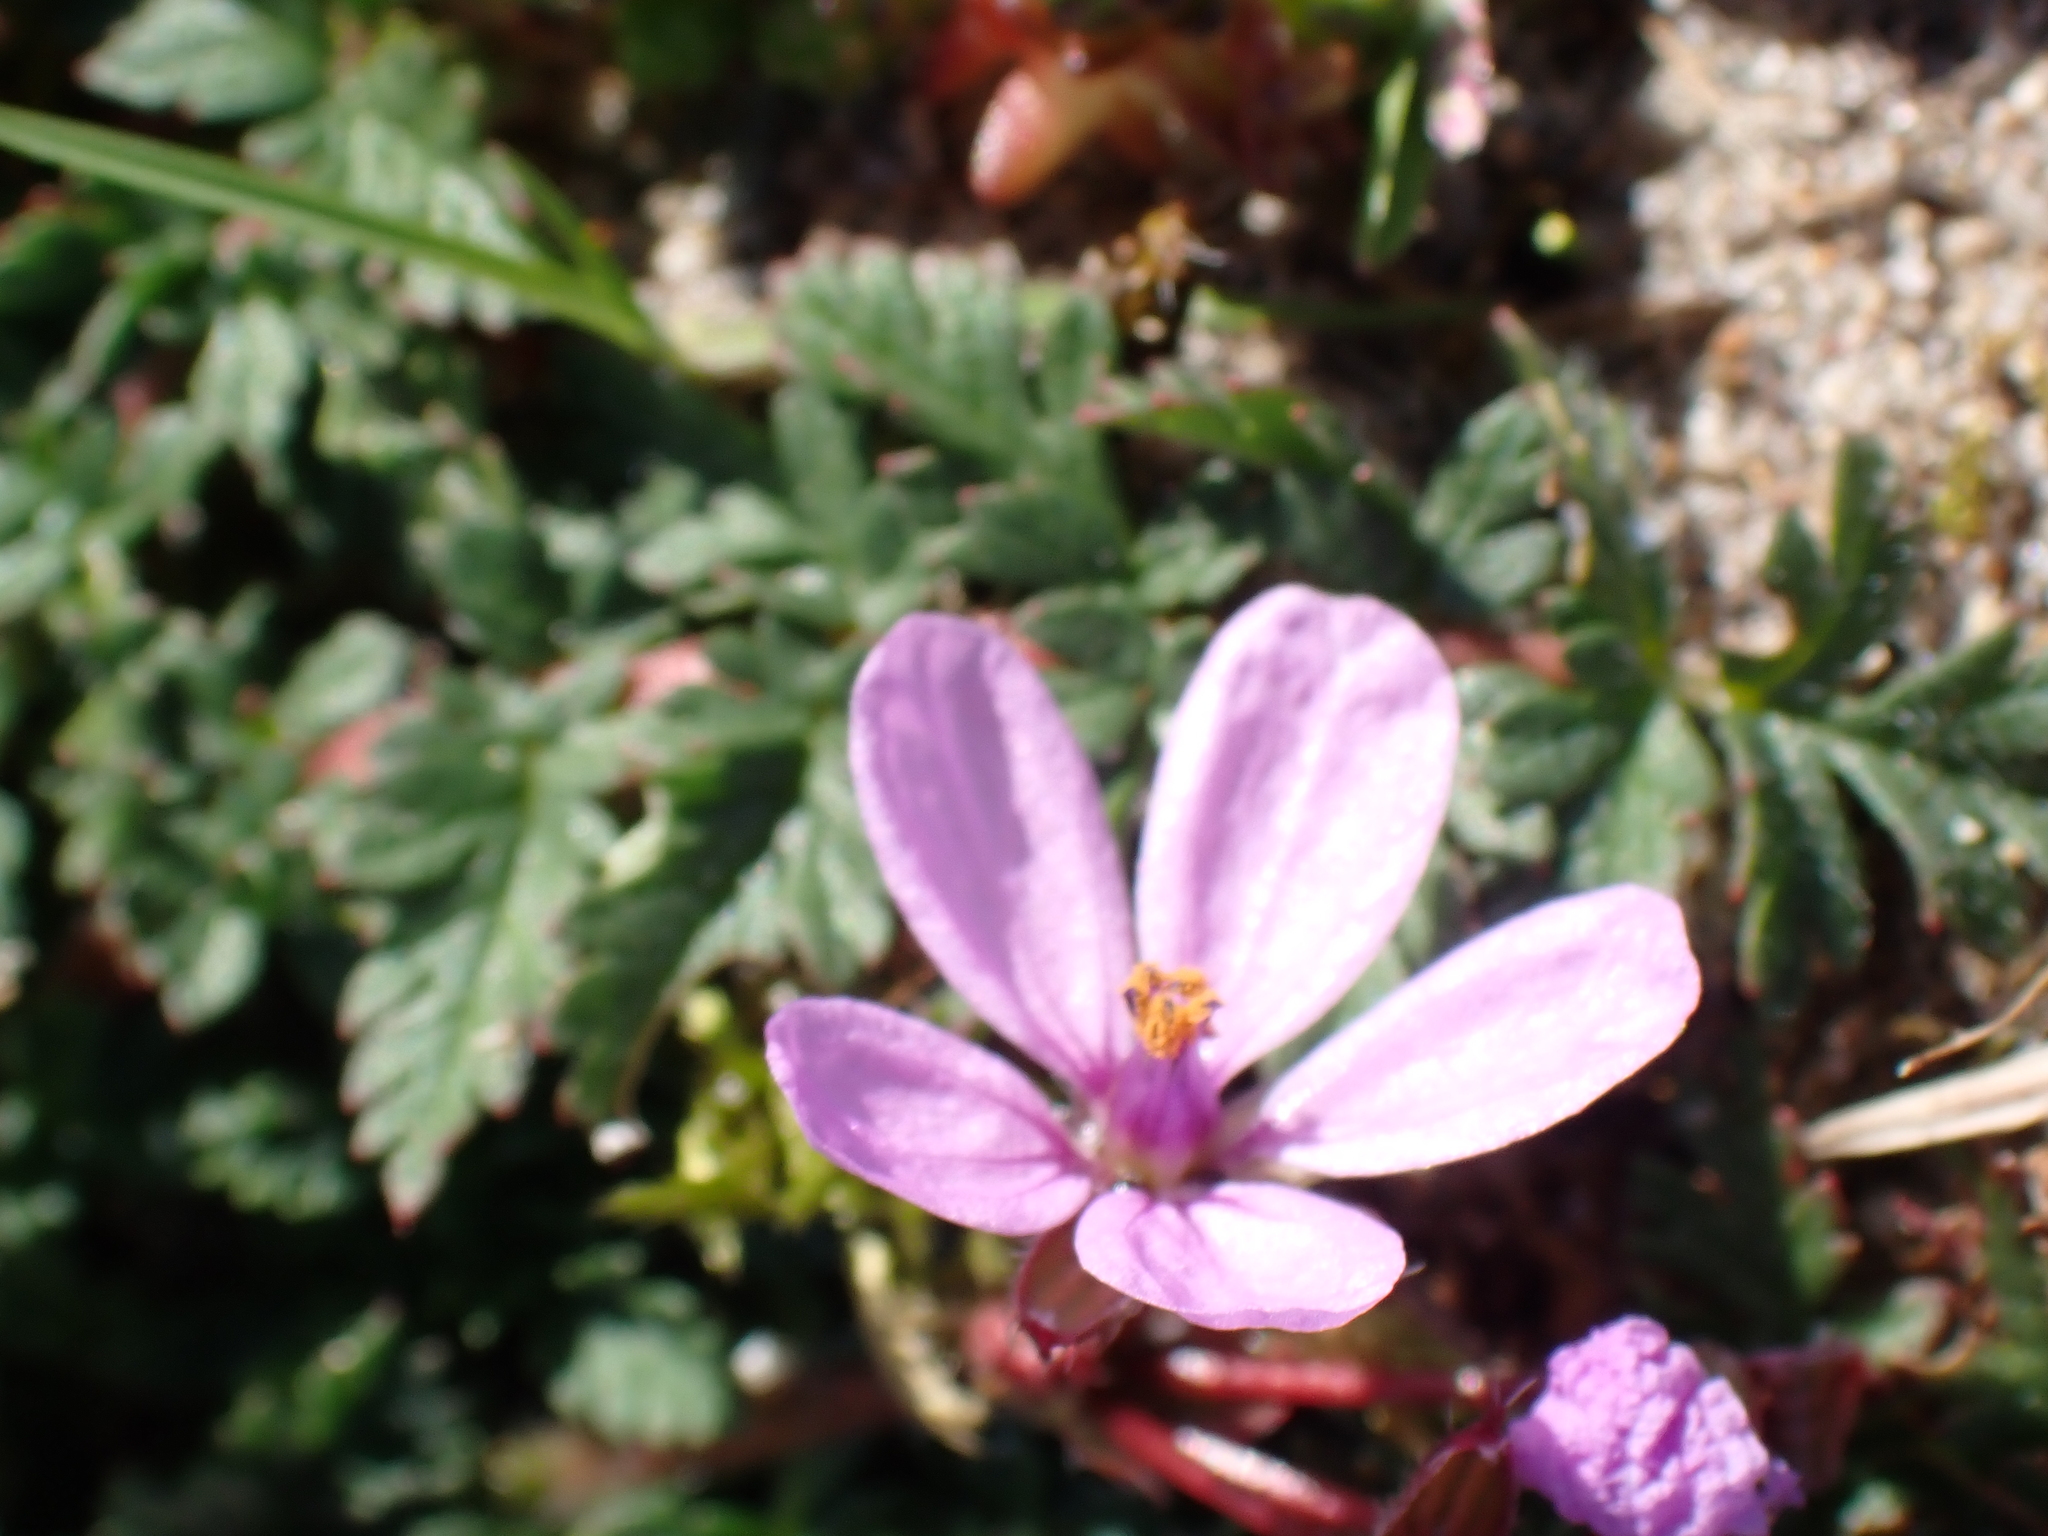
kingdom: Plantae
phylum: Tracheophyta
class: Magnoliopsida
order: Geraniales
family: Geraniaceae
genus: Erodium
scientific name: Erodium cicutarium
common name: Common stork's-bill
